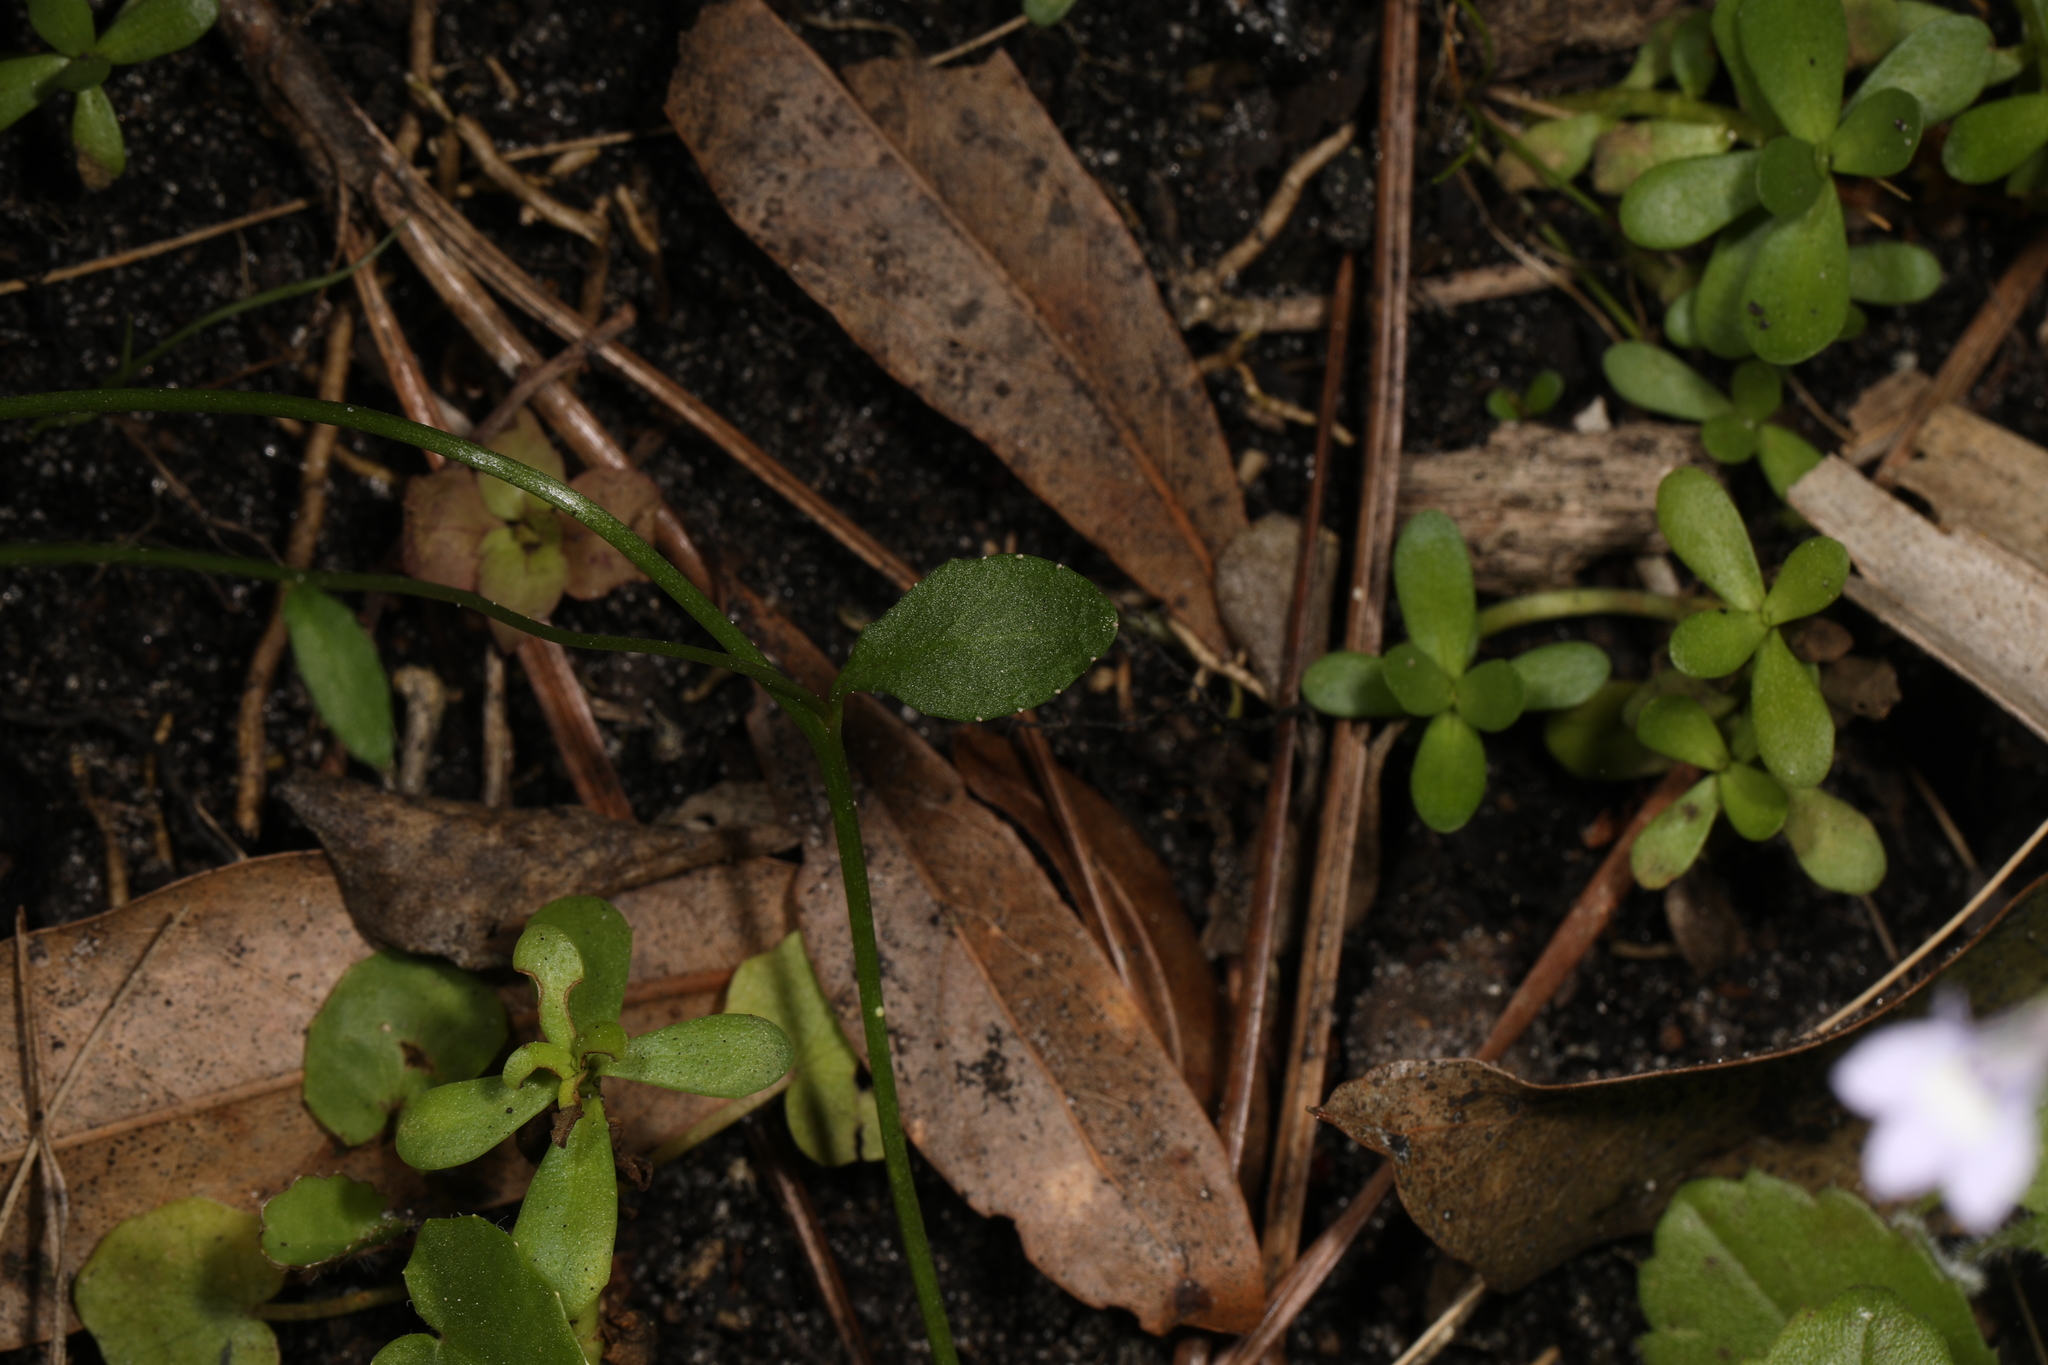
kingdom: Plantae
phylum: Tracheophyta
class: Magnoliopsida
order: Asterales
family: Campanulaceae
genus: Lobelia
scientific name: Lobelia feayana
